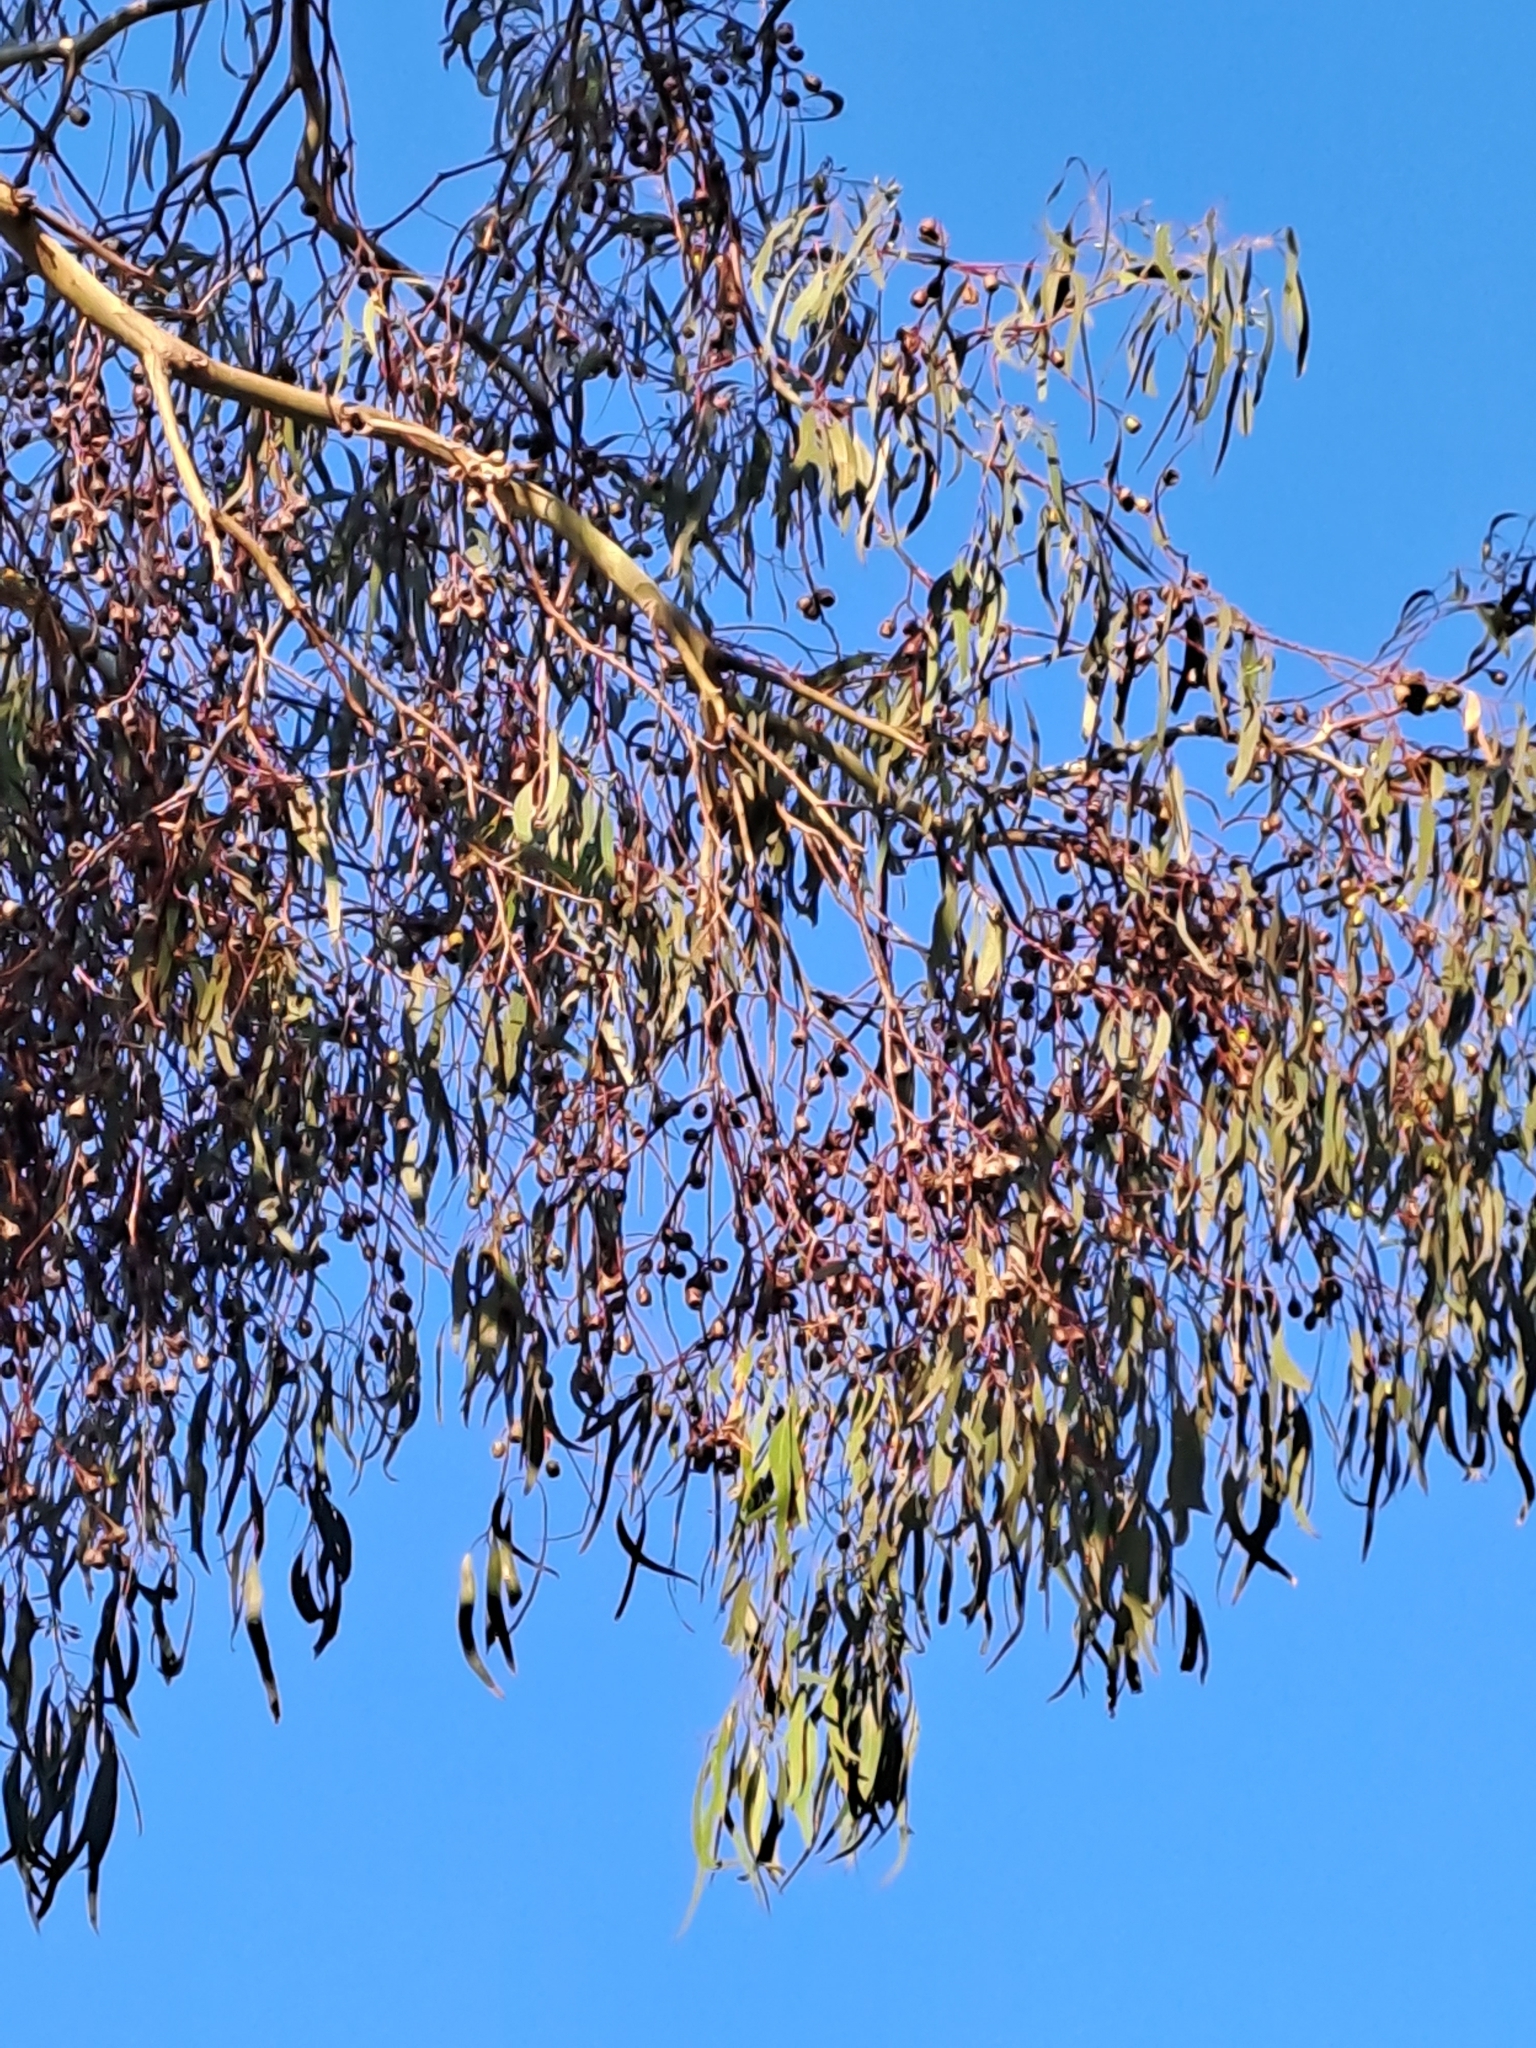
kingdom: Plantae
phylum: Tracheophyta
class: Magnoliopsida
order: Myrtales
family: Myrtaceae
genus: Eucalyptus
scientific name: Eucalyptus leucoxylon
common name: Blue gum
